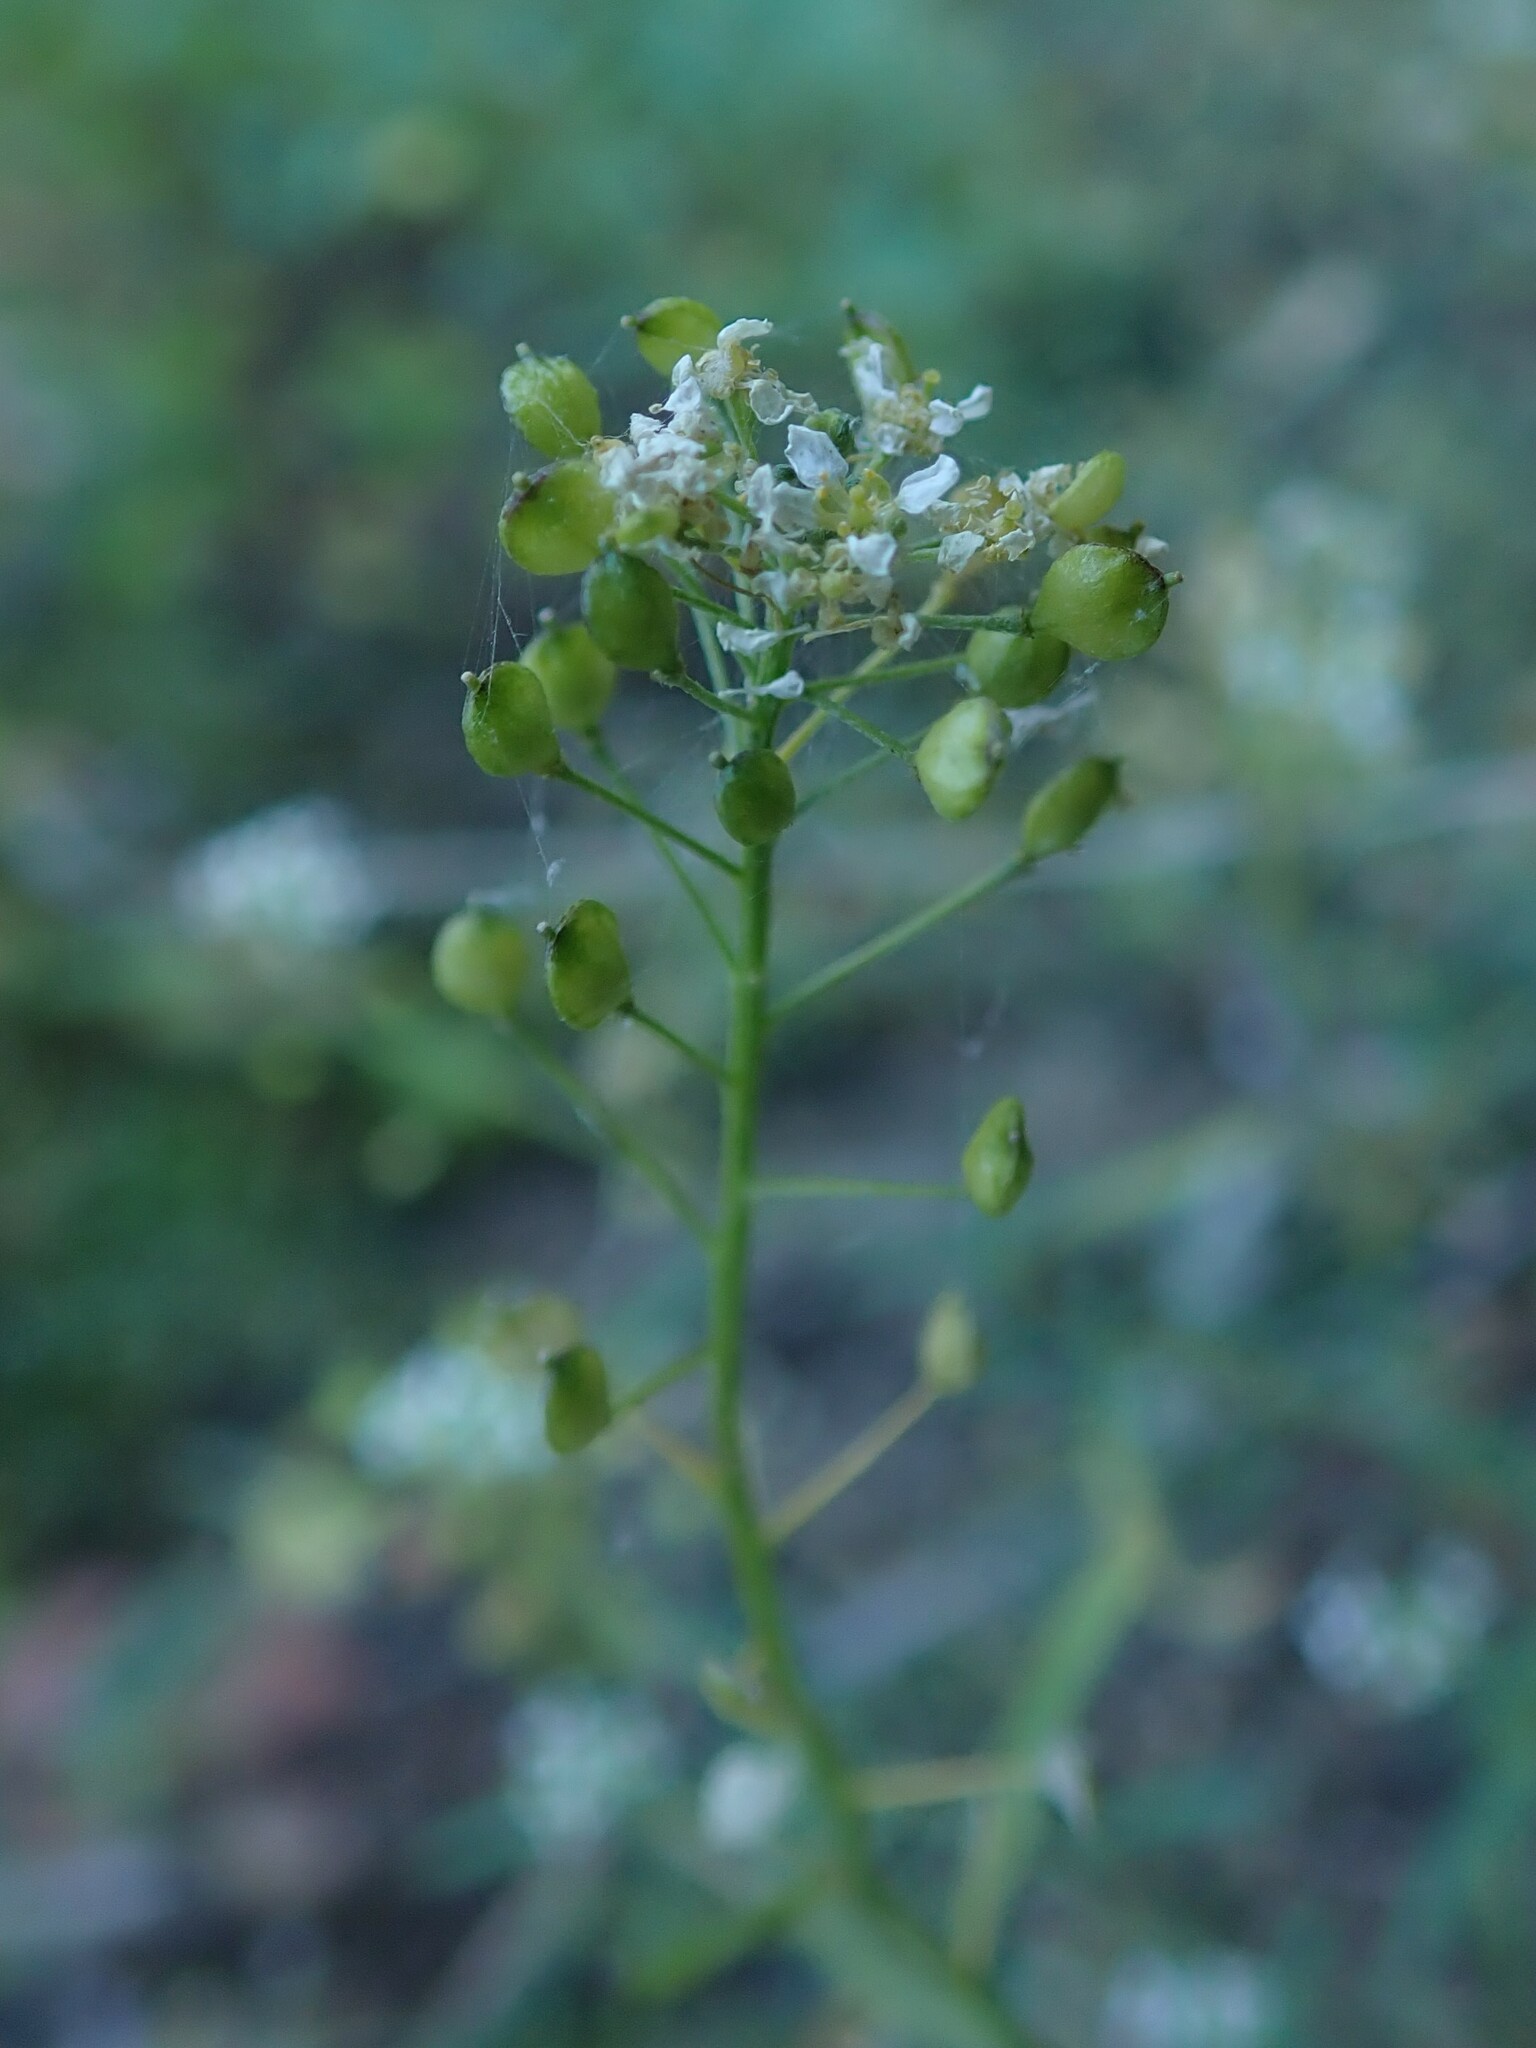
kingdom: Plantae
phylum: Tracheophyta
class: Magnoliopsida
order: Brassicales
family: Brassicaceae
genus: Lobularia
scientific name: Lobularia canariensis
